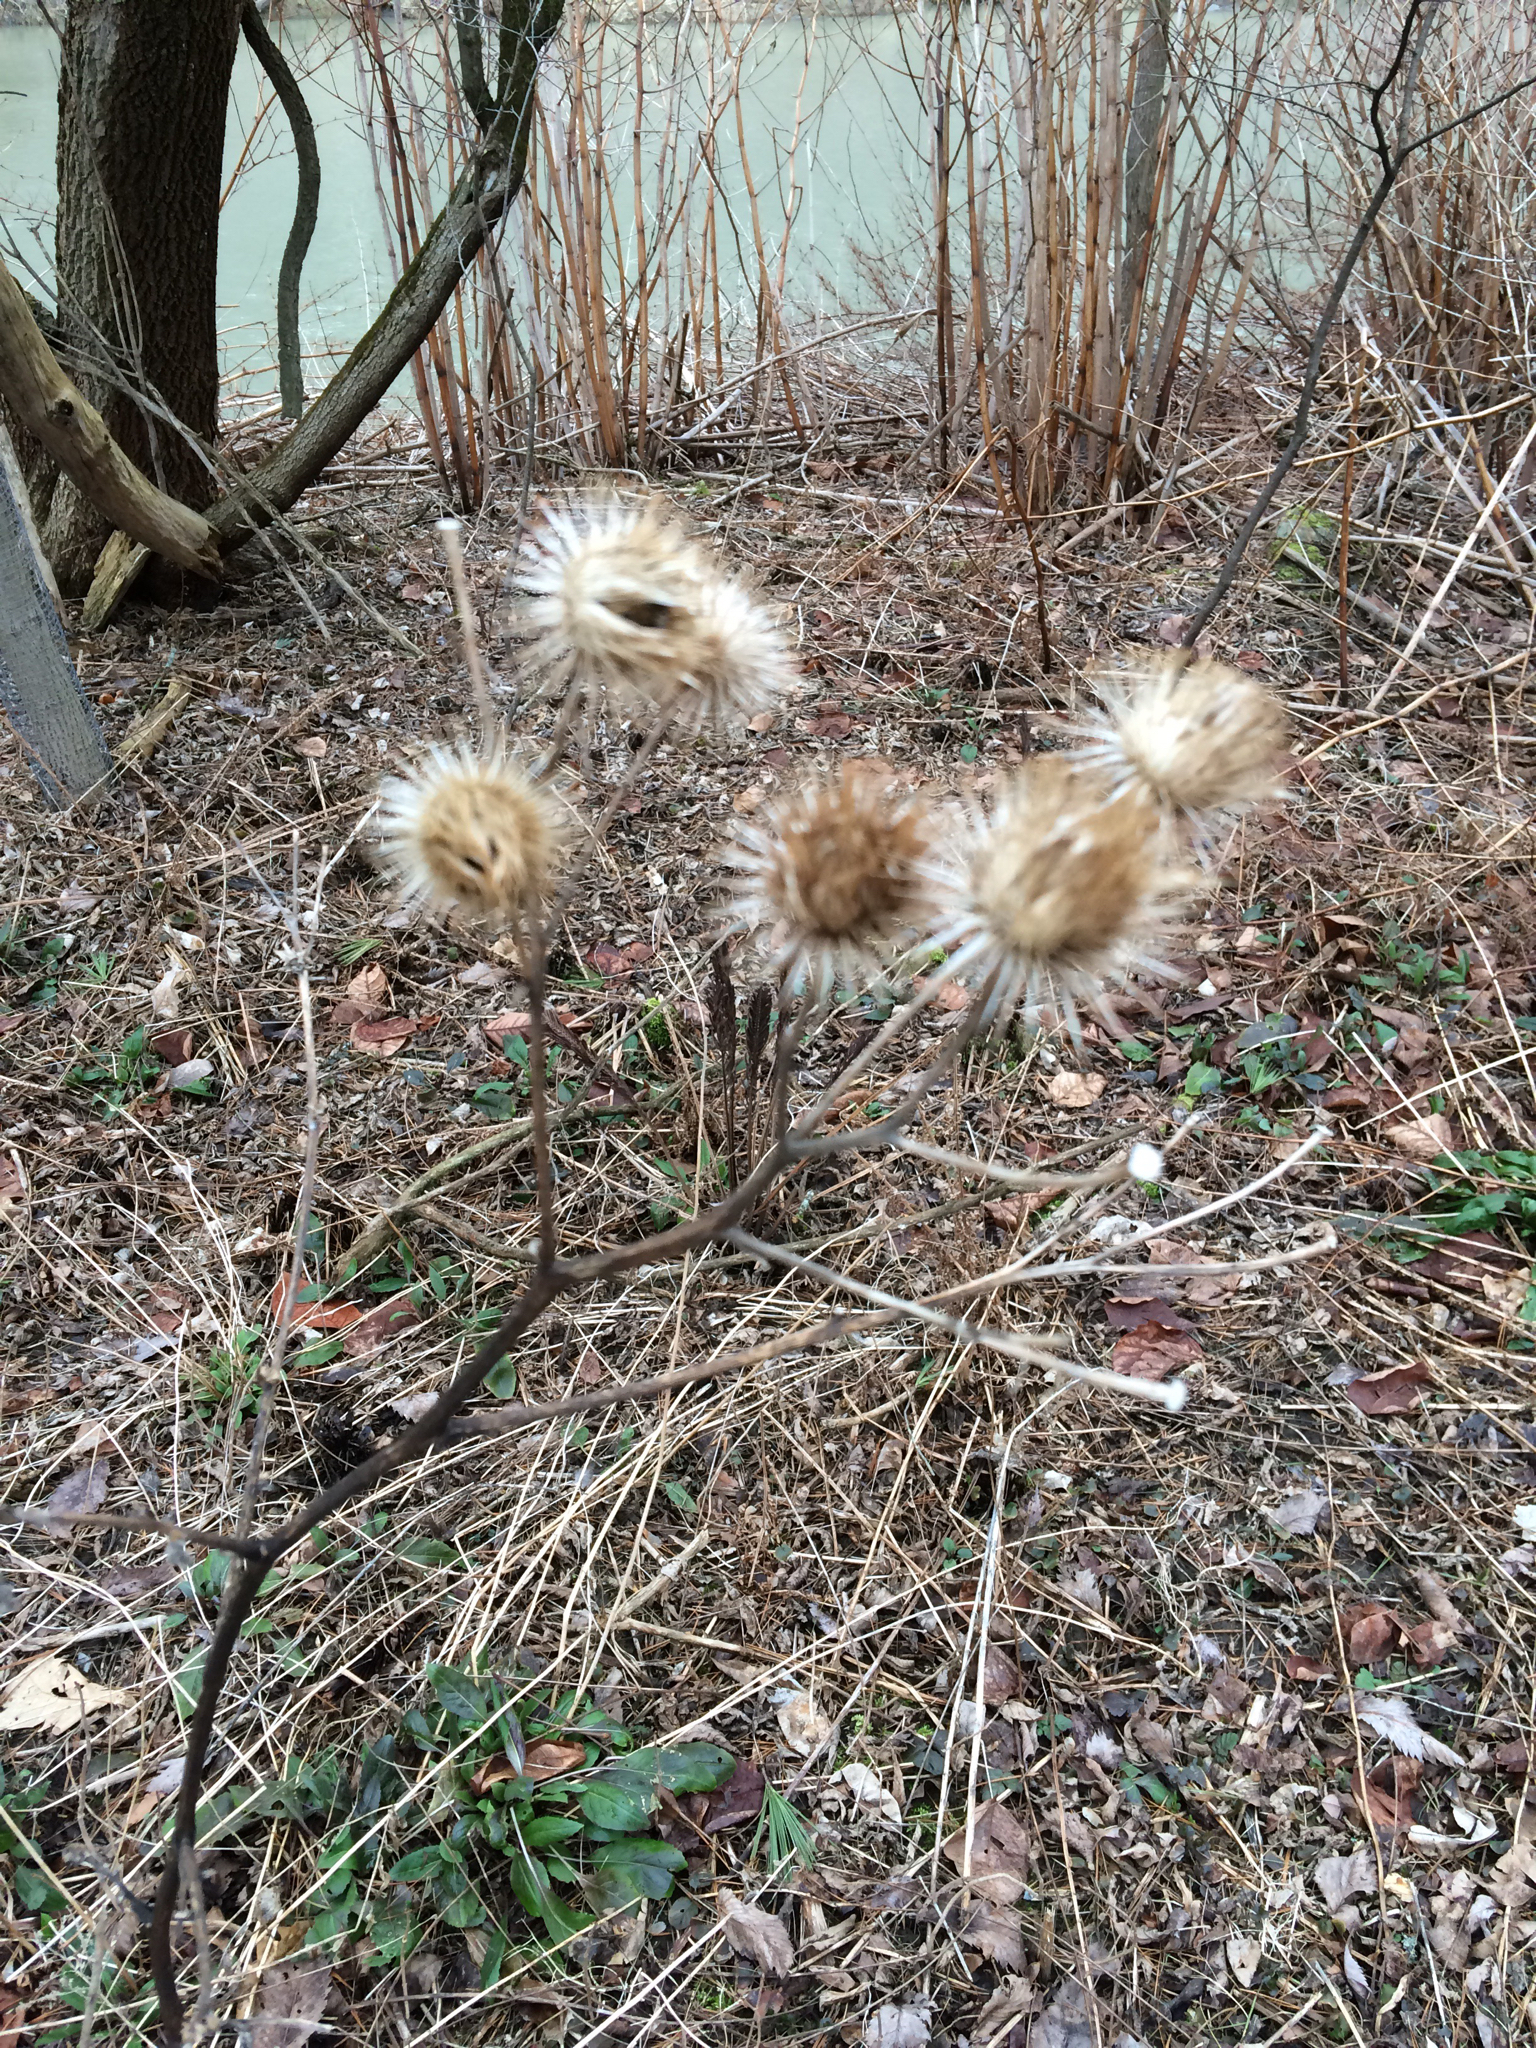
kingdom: Plantae
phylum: Tracheophyta
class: Magnoliopsida
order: Asterales
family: Asteraceae
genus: Arctium
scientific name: Arctium lappa
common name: Greater burdock
